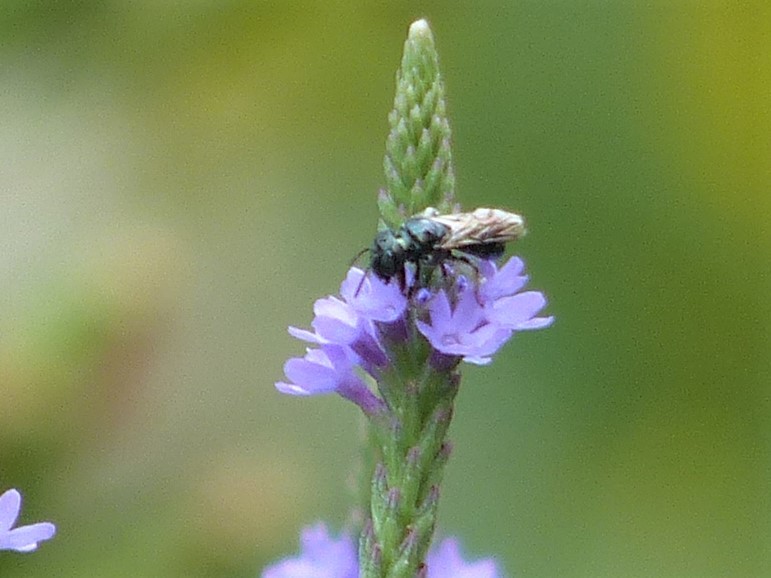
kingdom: Animalia
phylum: Arthropoda
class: Insecta
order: Hymenoptera
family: Apidae
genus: Zadontomerus
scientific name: Zadontomerus
